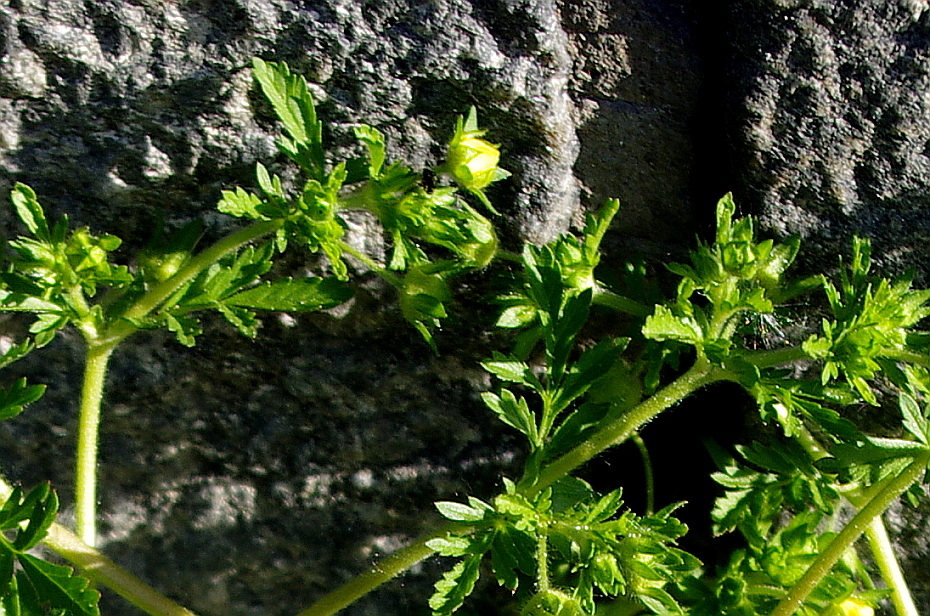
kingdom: Plantae
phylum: Tracheophyta
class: Magnoliopsida
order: Rosales
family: Rosaceae
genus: Potentilla
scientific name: Potentilla supina
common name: Prostrate cinquefoil
